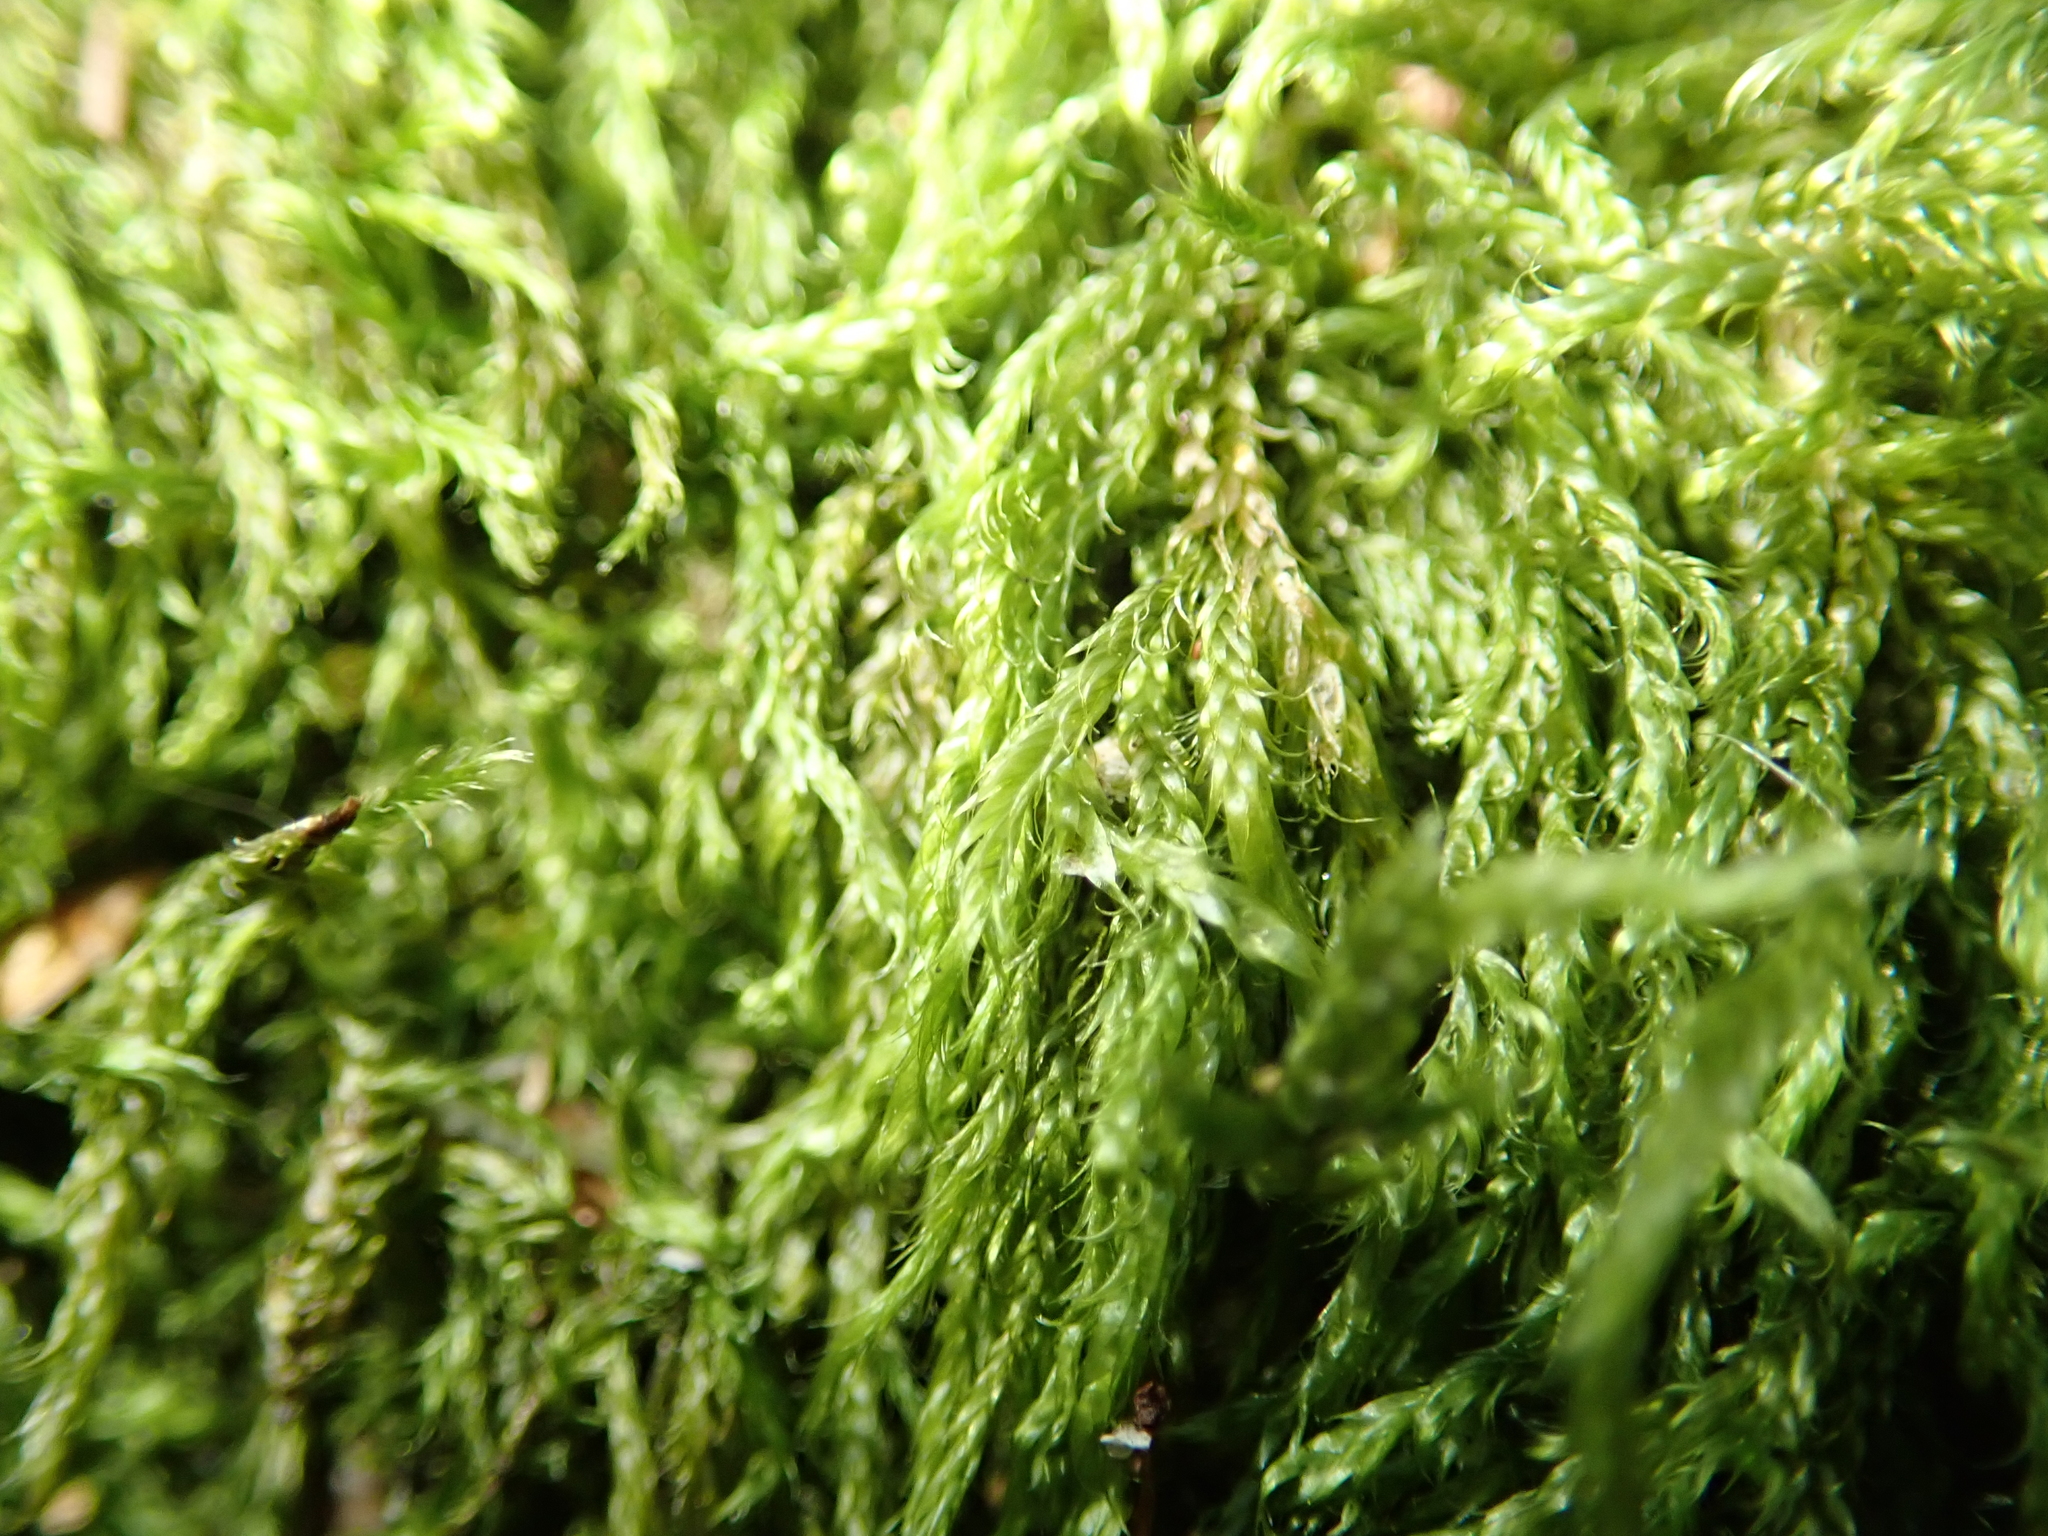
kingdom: Plantae
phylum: Bryophyta
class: Bryopsida
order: Hypnales
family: Hypnaceae
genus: Hypnum
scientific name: Hypnum cupressiforme
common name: Cypress-leaved plait-moss
